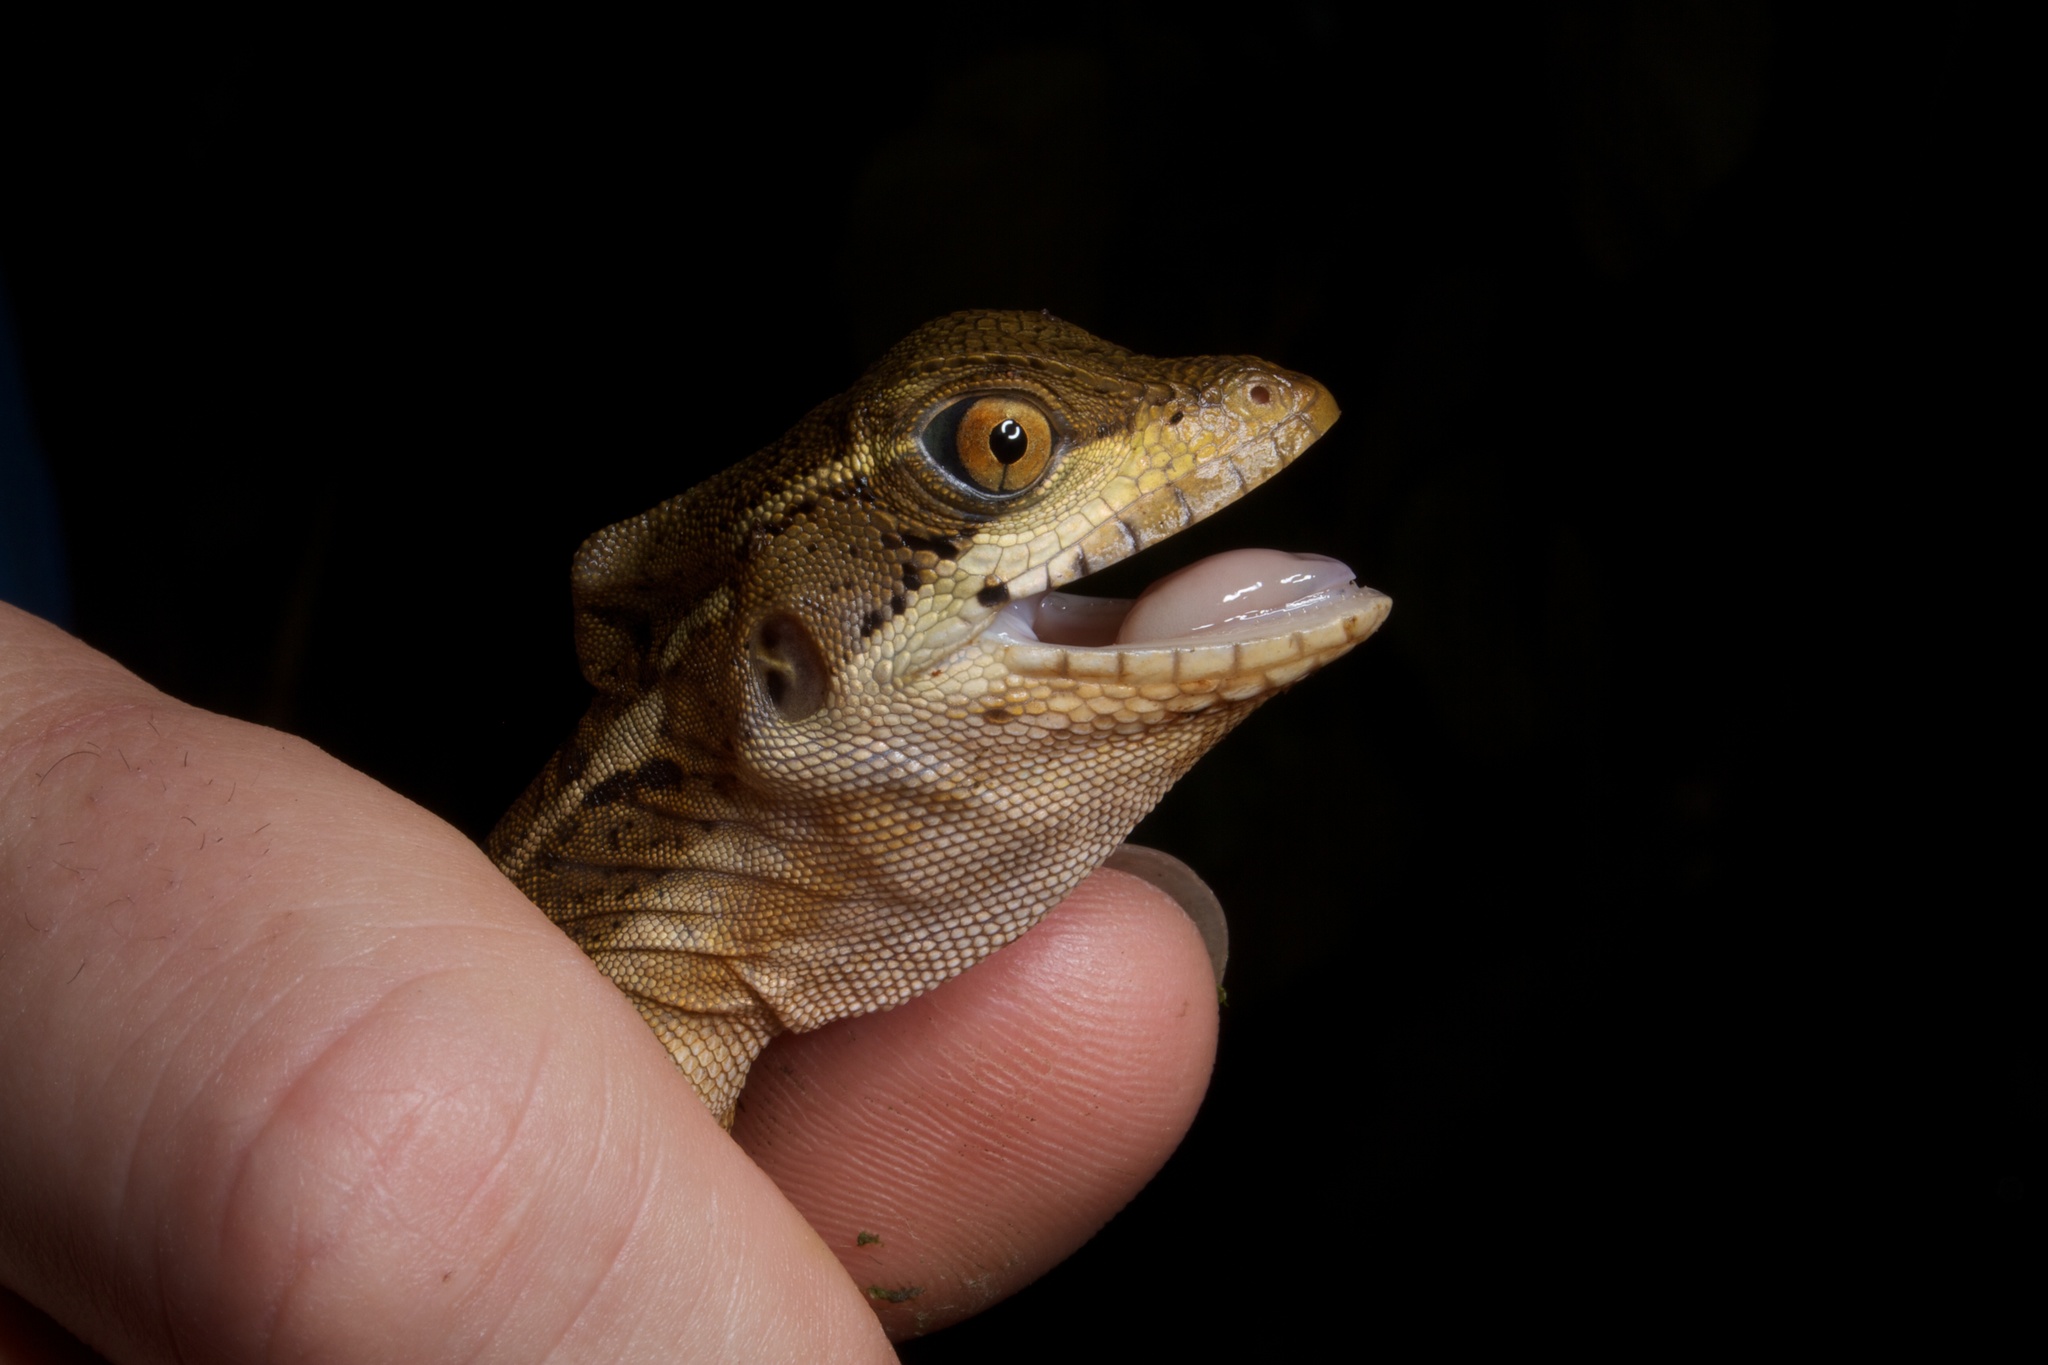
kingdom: Animalia
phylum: Chordata
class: Squamata
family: Corytophanidae
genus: Basiliscus
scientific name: Basiliscus basiliscus
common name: Common basilisk
